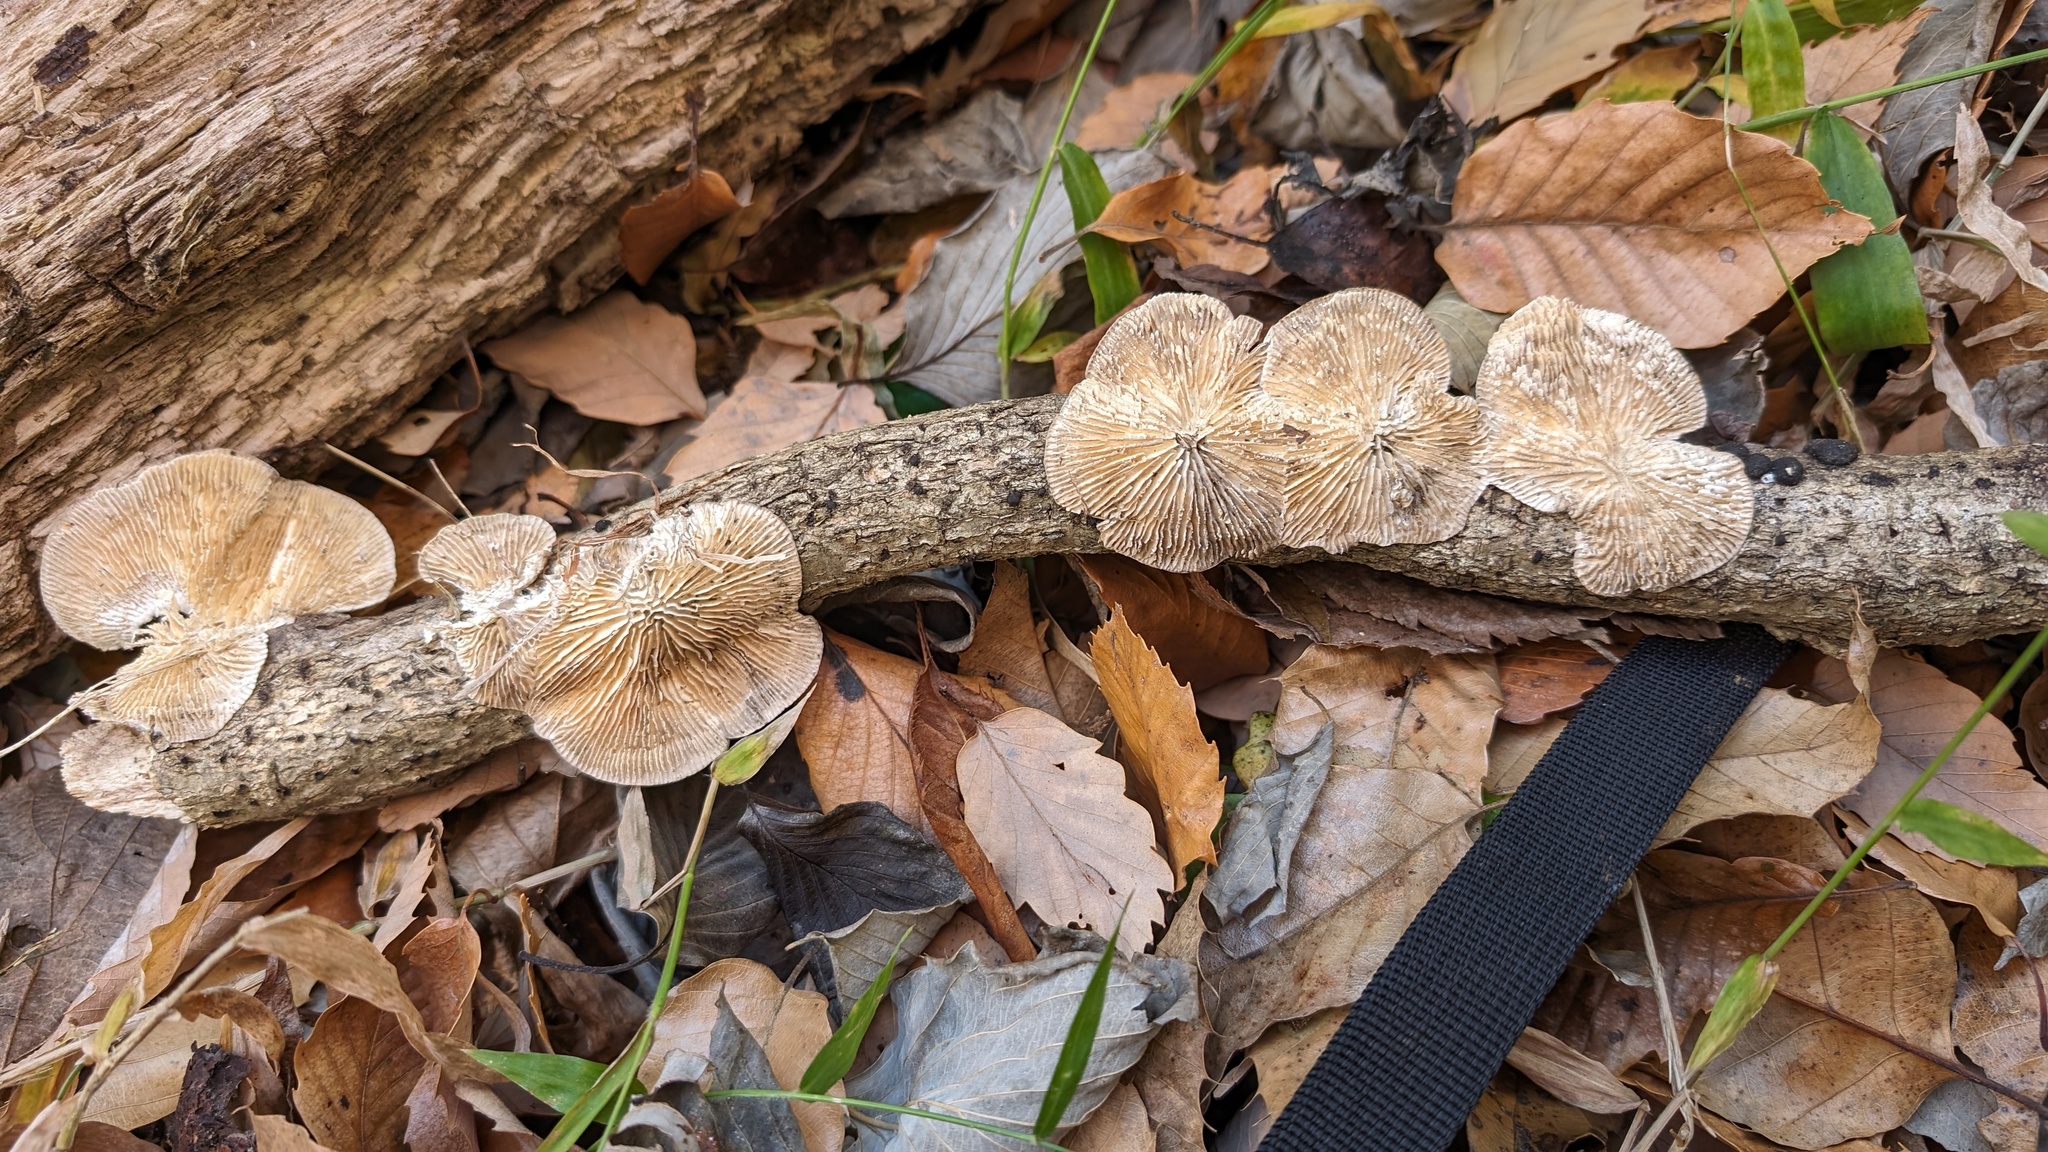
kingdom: Fungi
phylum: Basidiomycota
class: Agaricomycetes
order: Polyporales
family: Polyporaceae
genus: Lenzites
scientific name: Lenzites betulinus
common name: Birch mazegill
